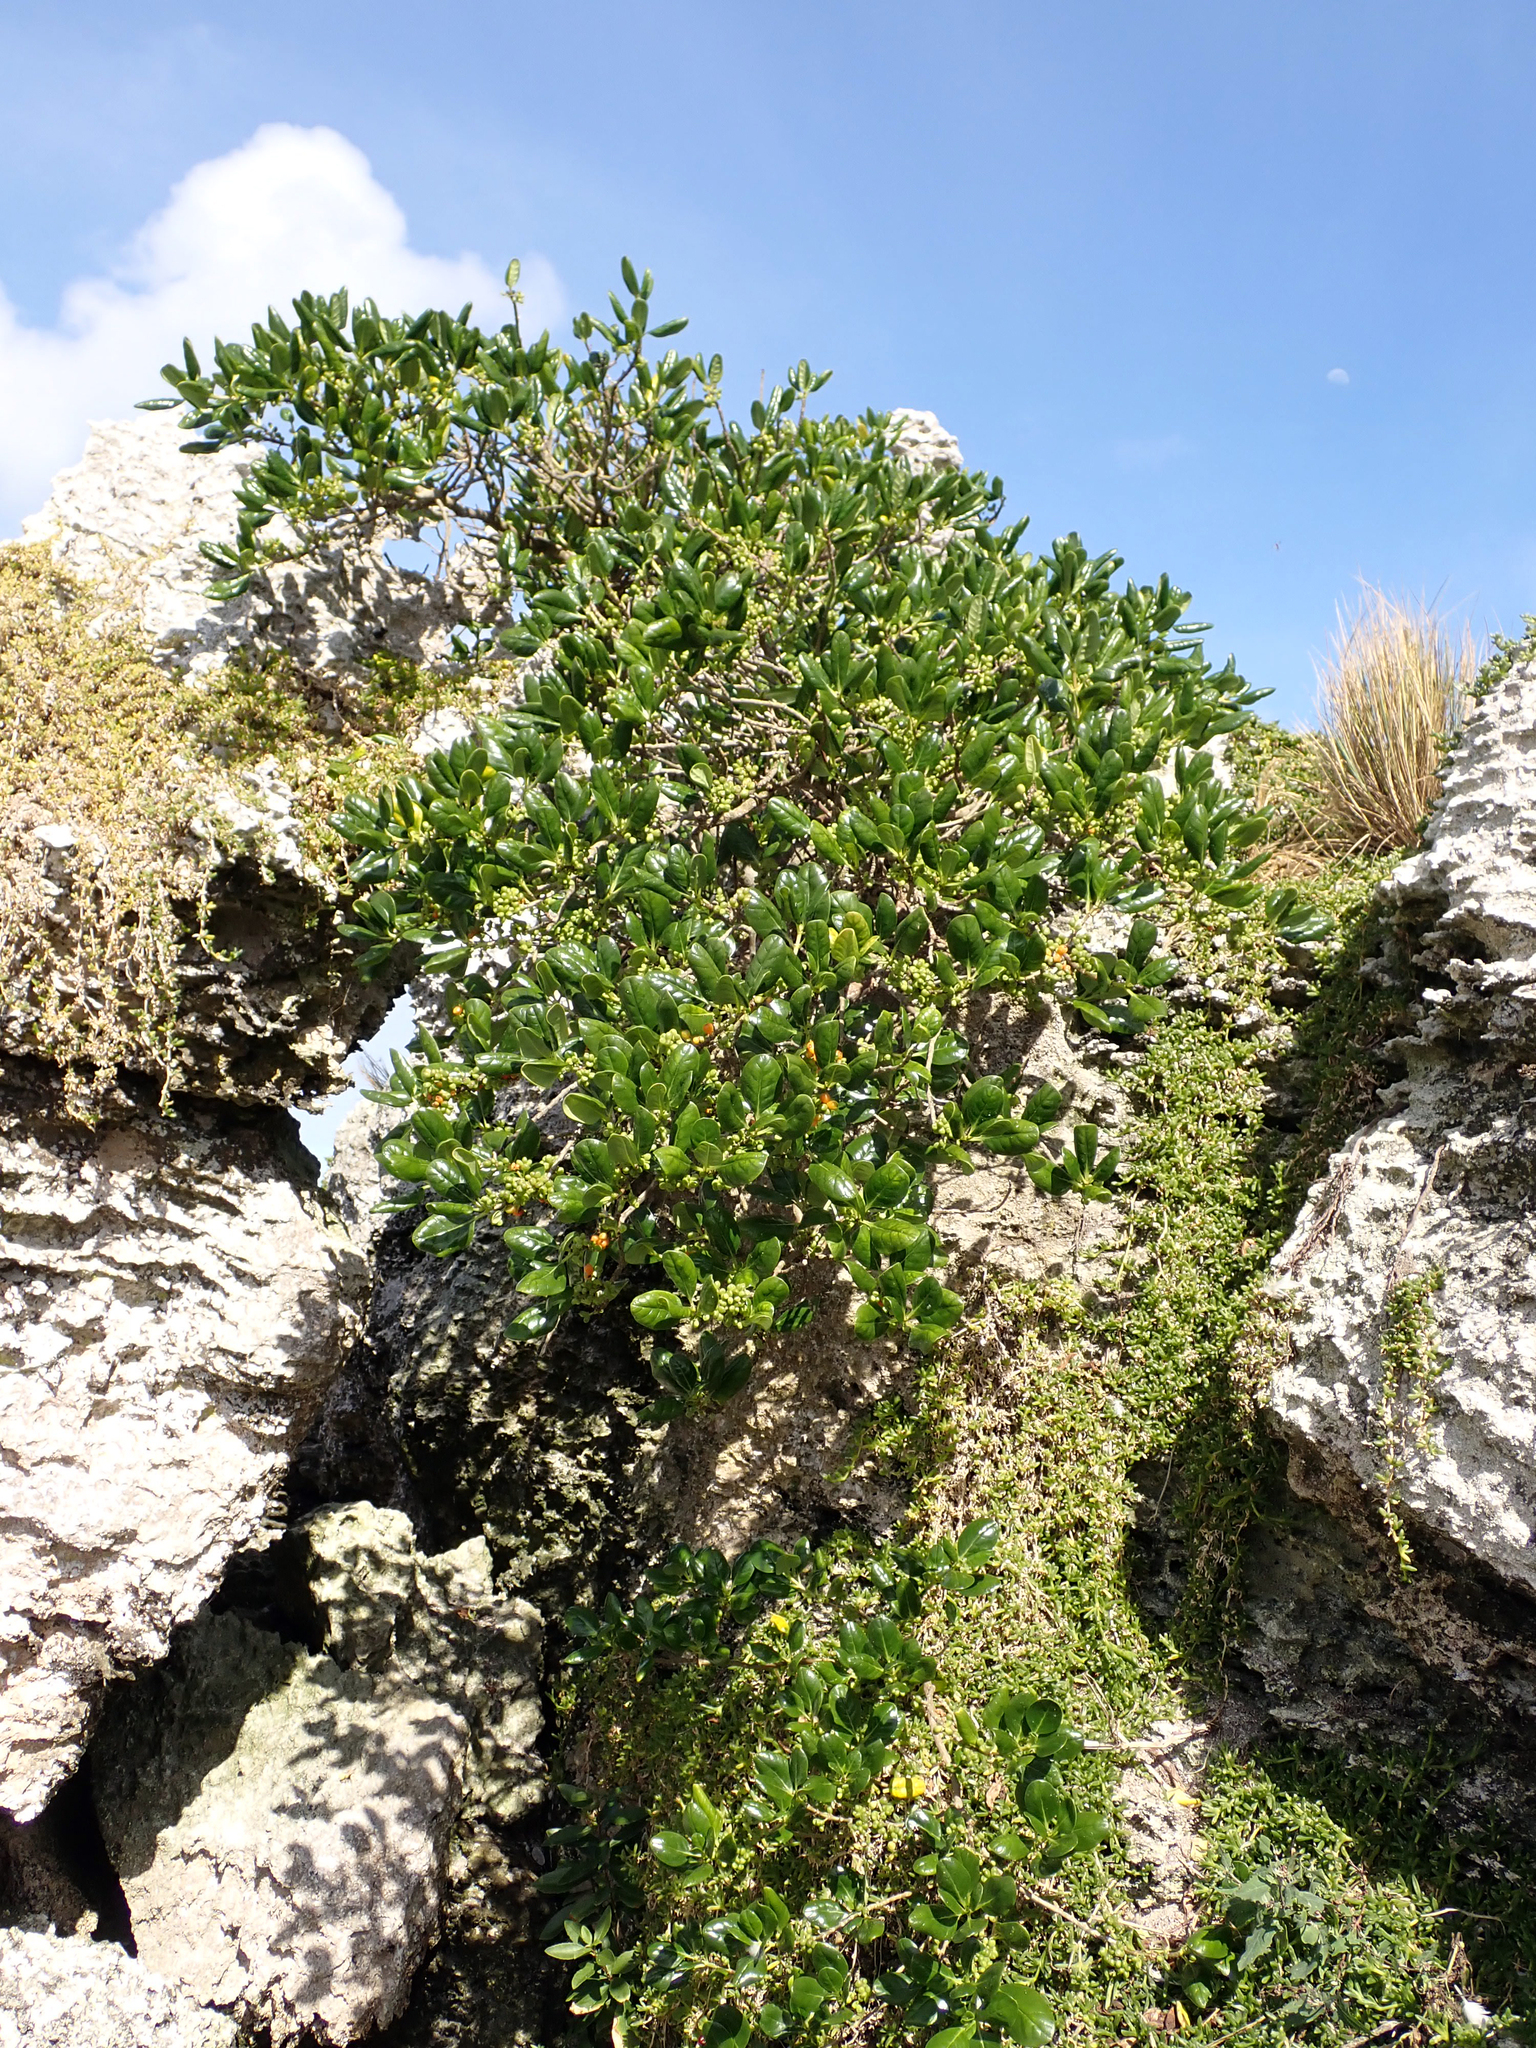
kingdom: Plantae
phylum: Tracheophyta
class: Magnoliopsida
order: Gentianales
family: Rubiaceae
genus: Coprosma
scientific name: Coprosma repens
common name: Tree bedstraw
